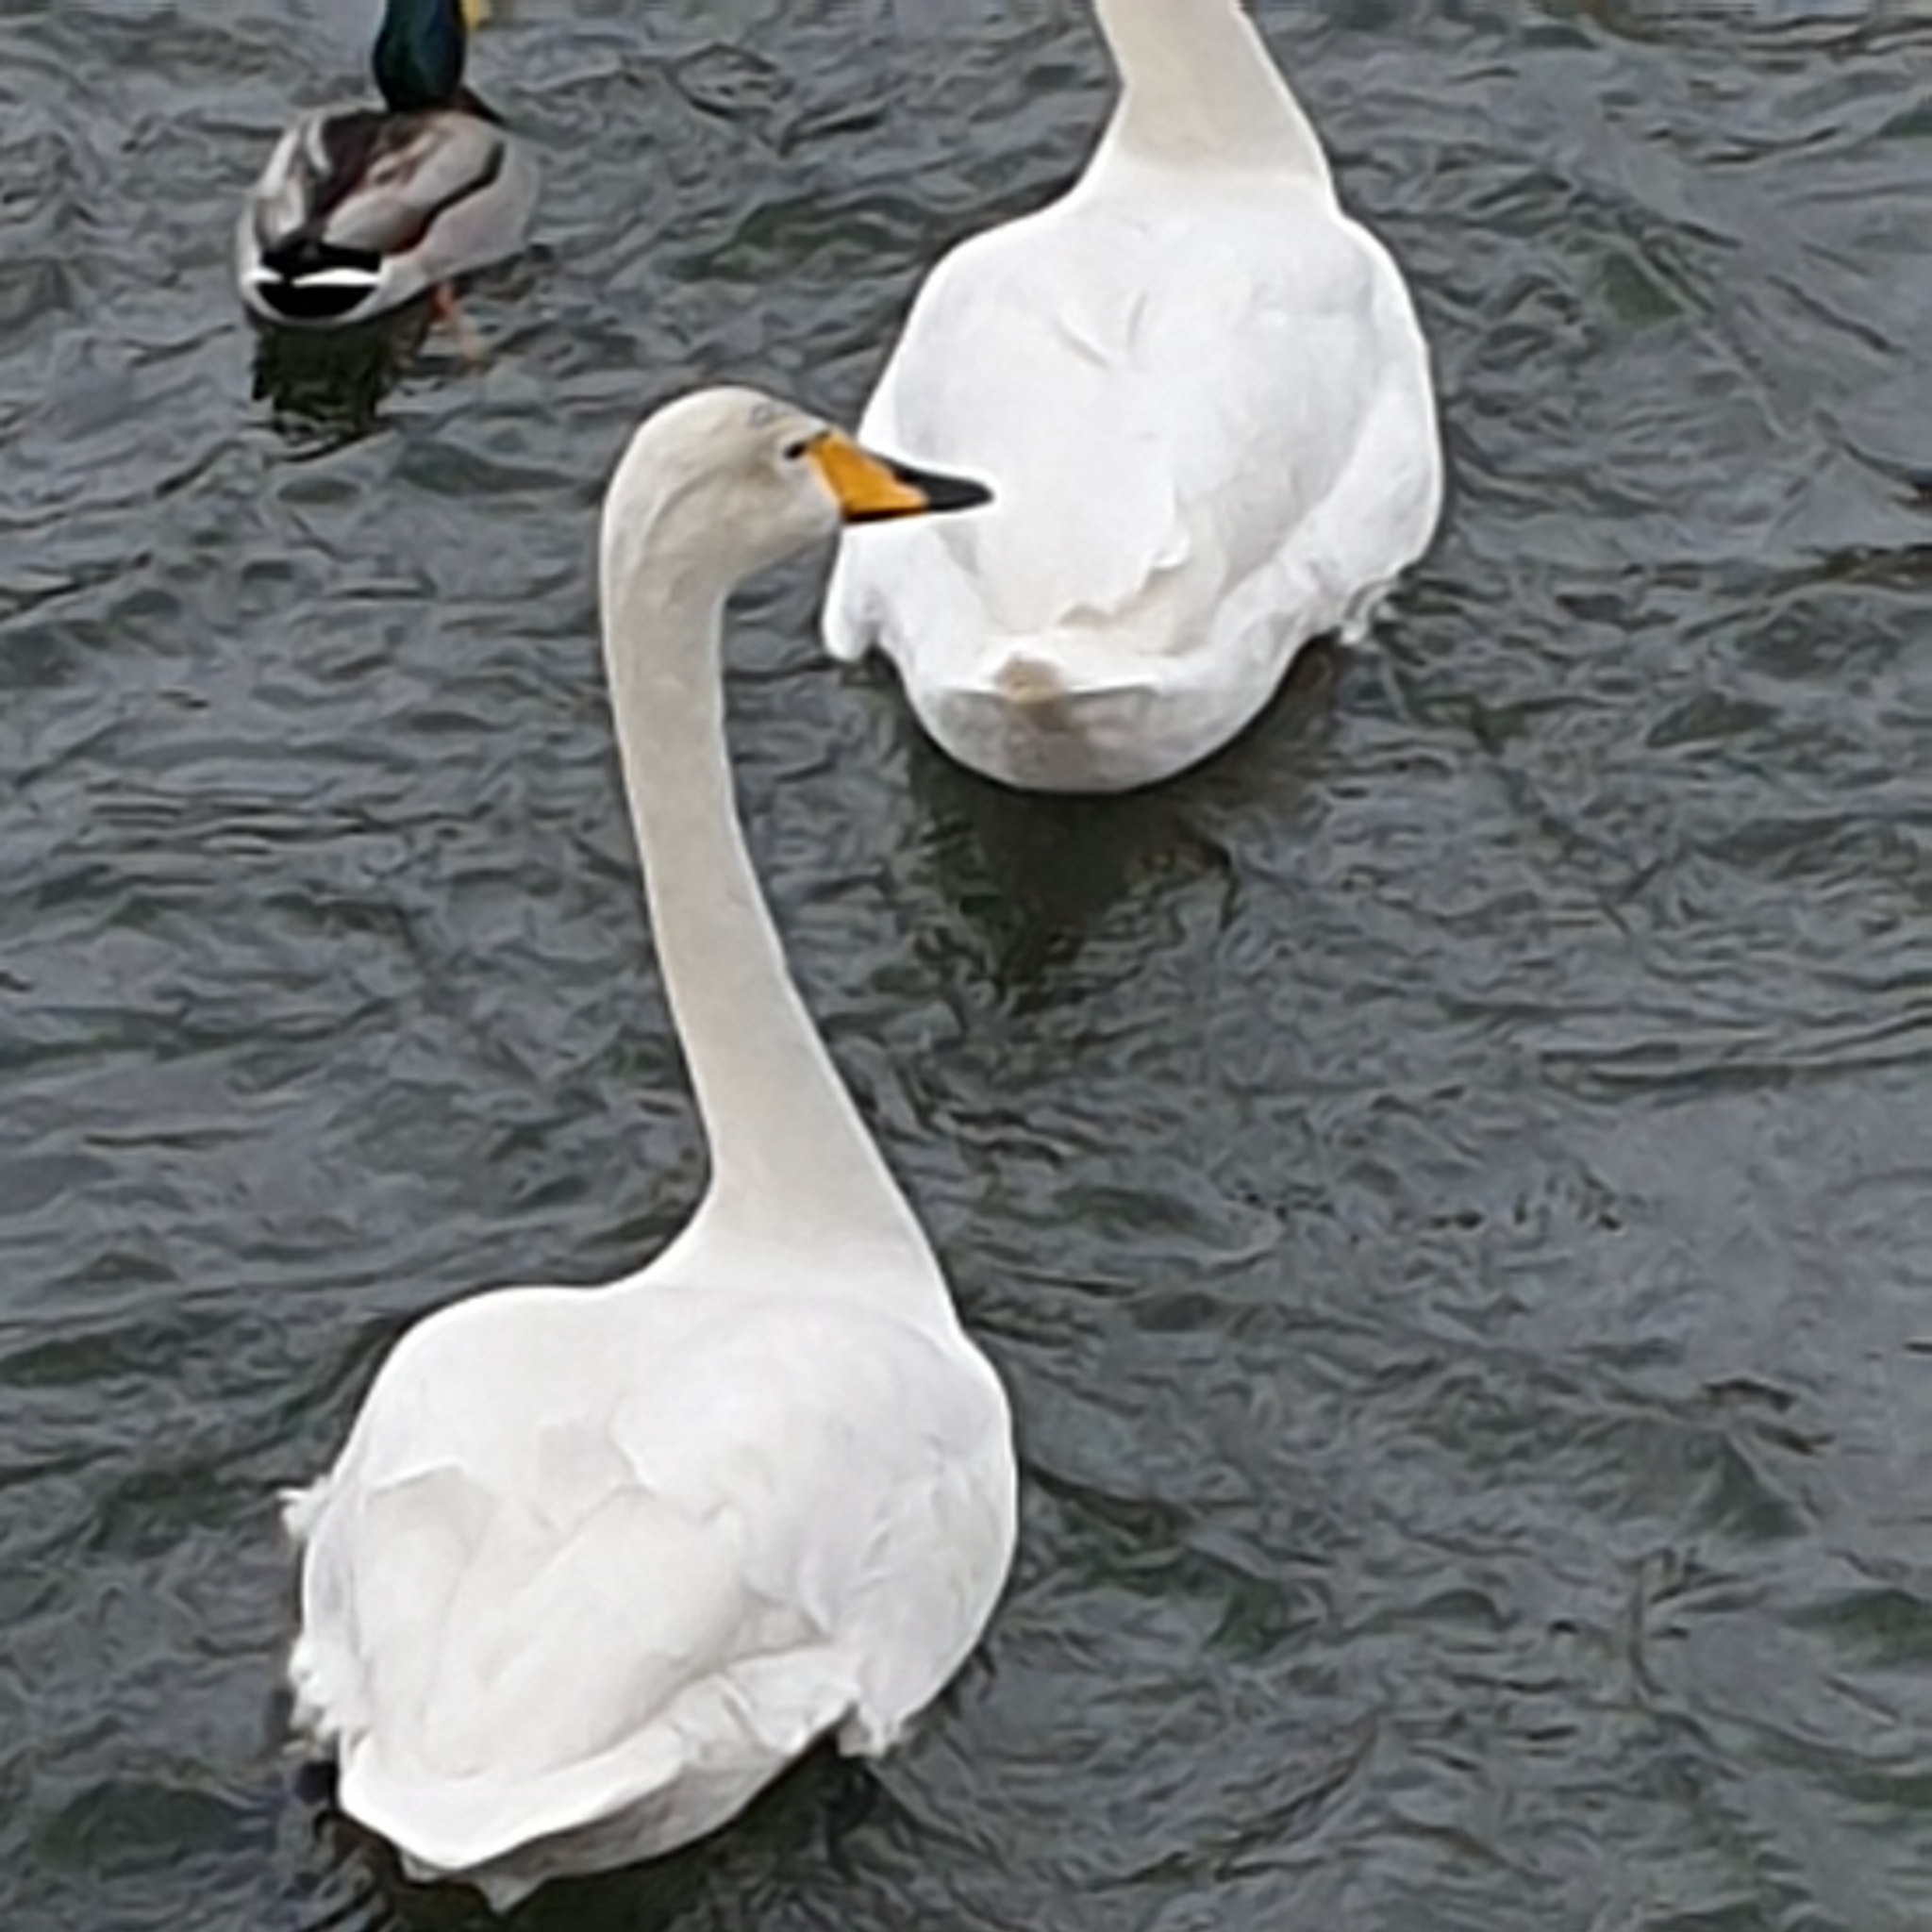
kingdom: Animalia
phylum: Chordata
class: Aves
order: Anseriformes
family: Anatidae
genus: Cygnus
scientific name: Cygnus cygnus
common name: Whooper swan
